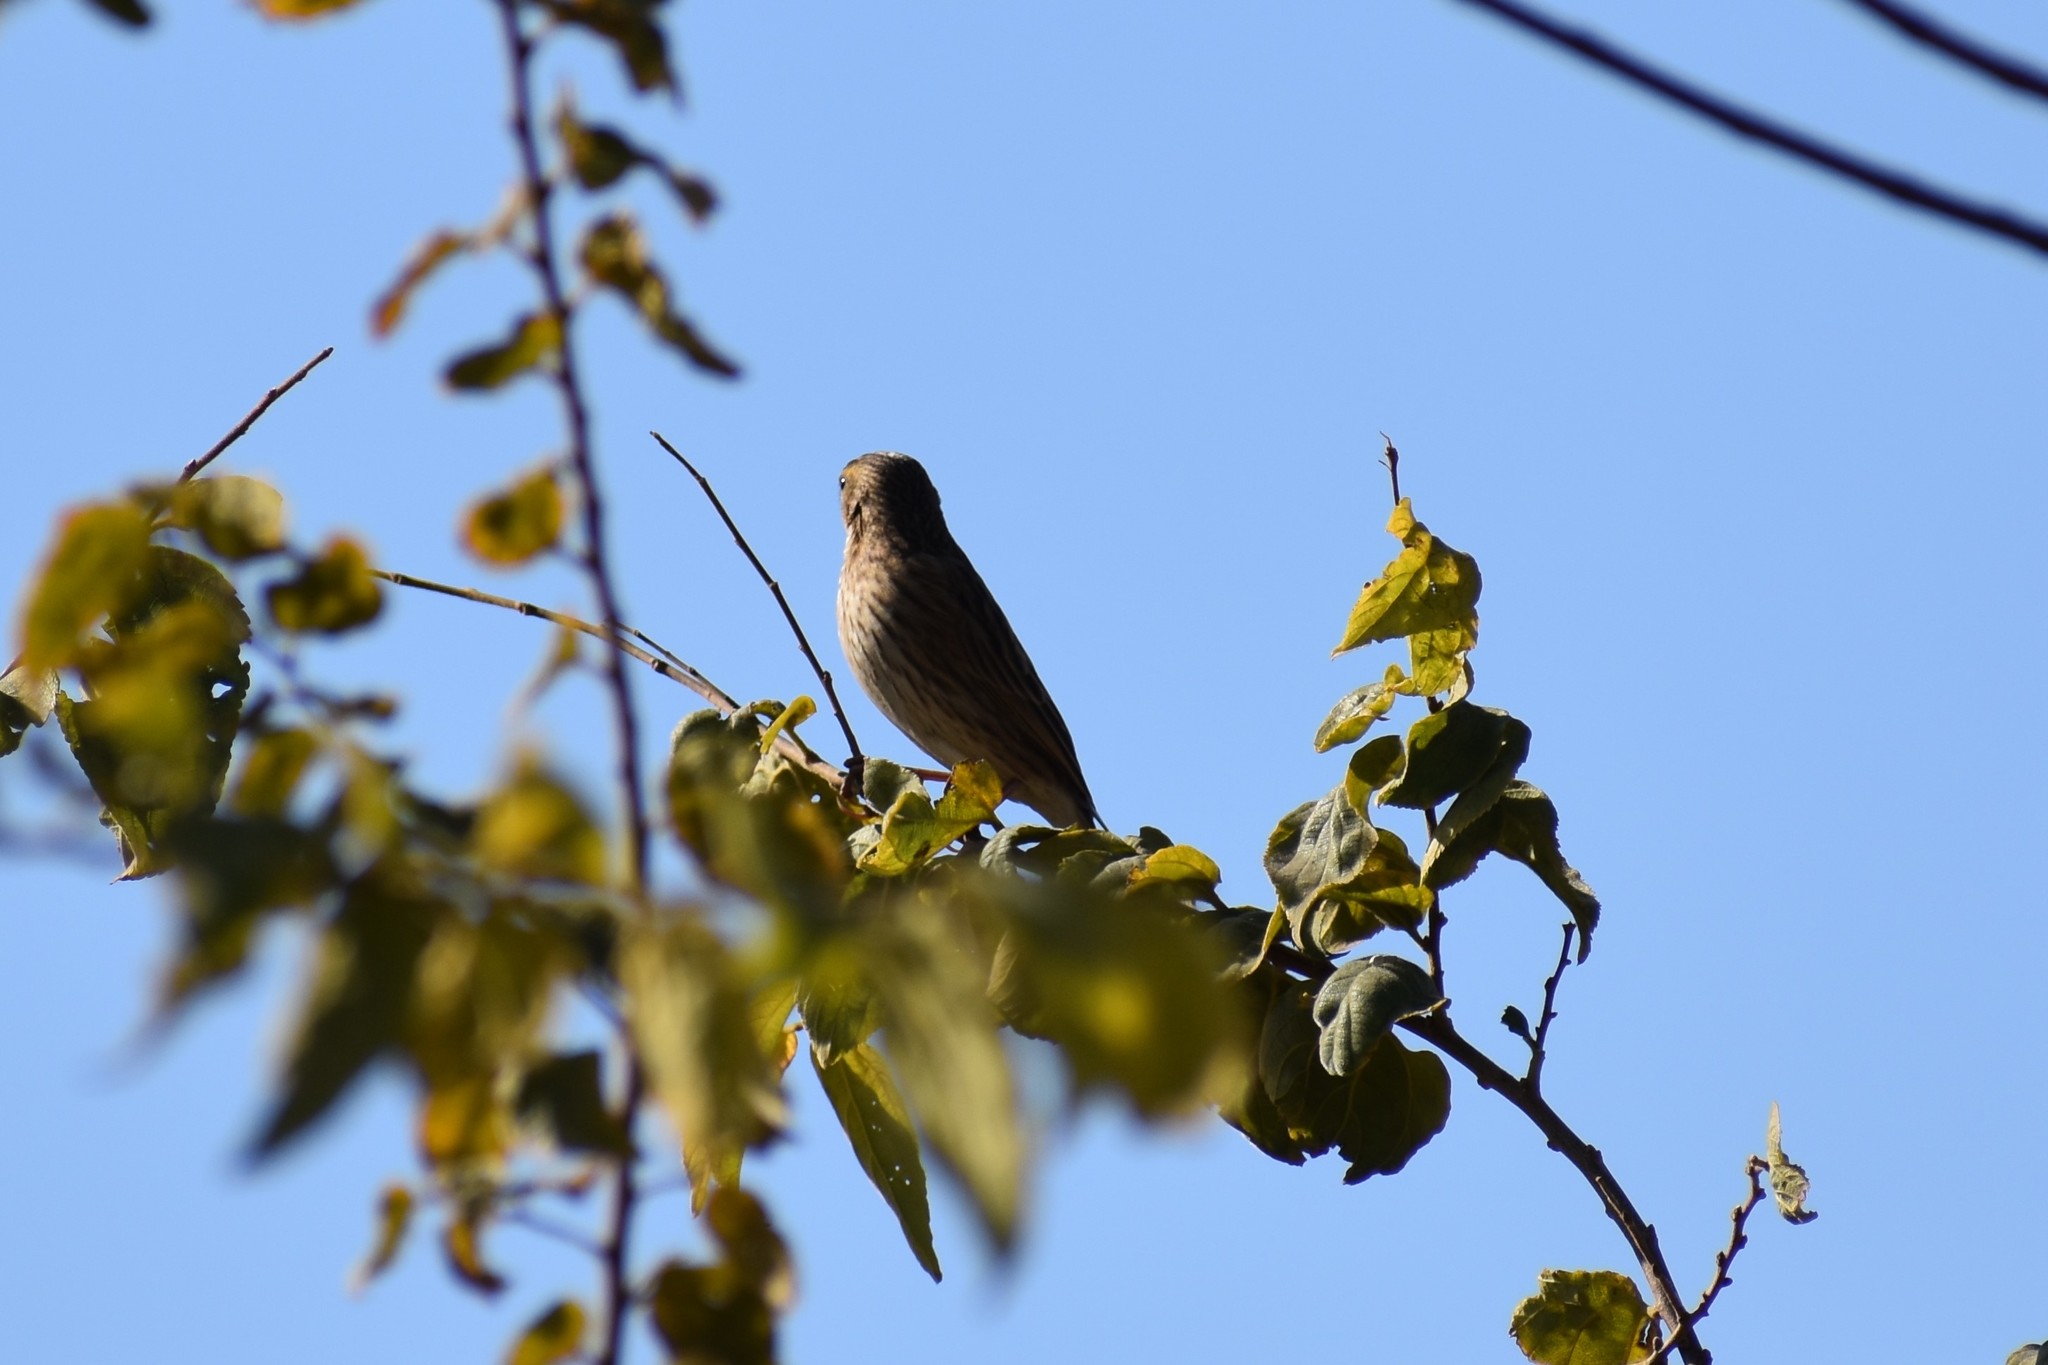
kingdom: Animalia
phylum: Chordata
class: Aves
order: Passeriformes
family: Fringillidae
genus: Crithagra
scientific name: Crithagra flaviventris
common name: Yellow canary
